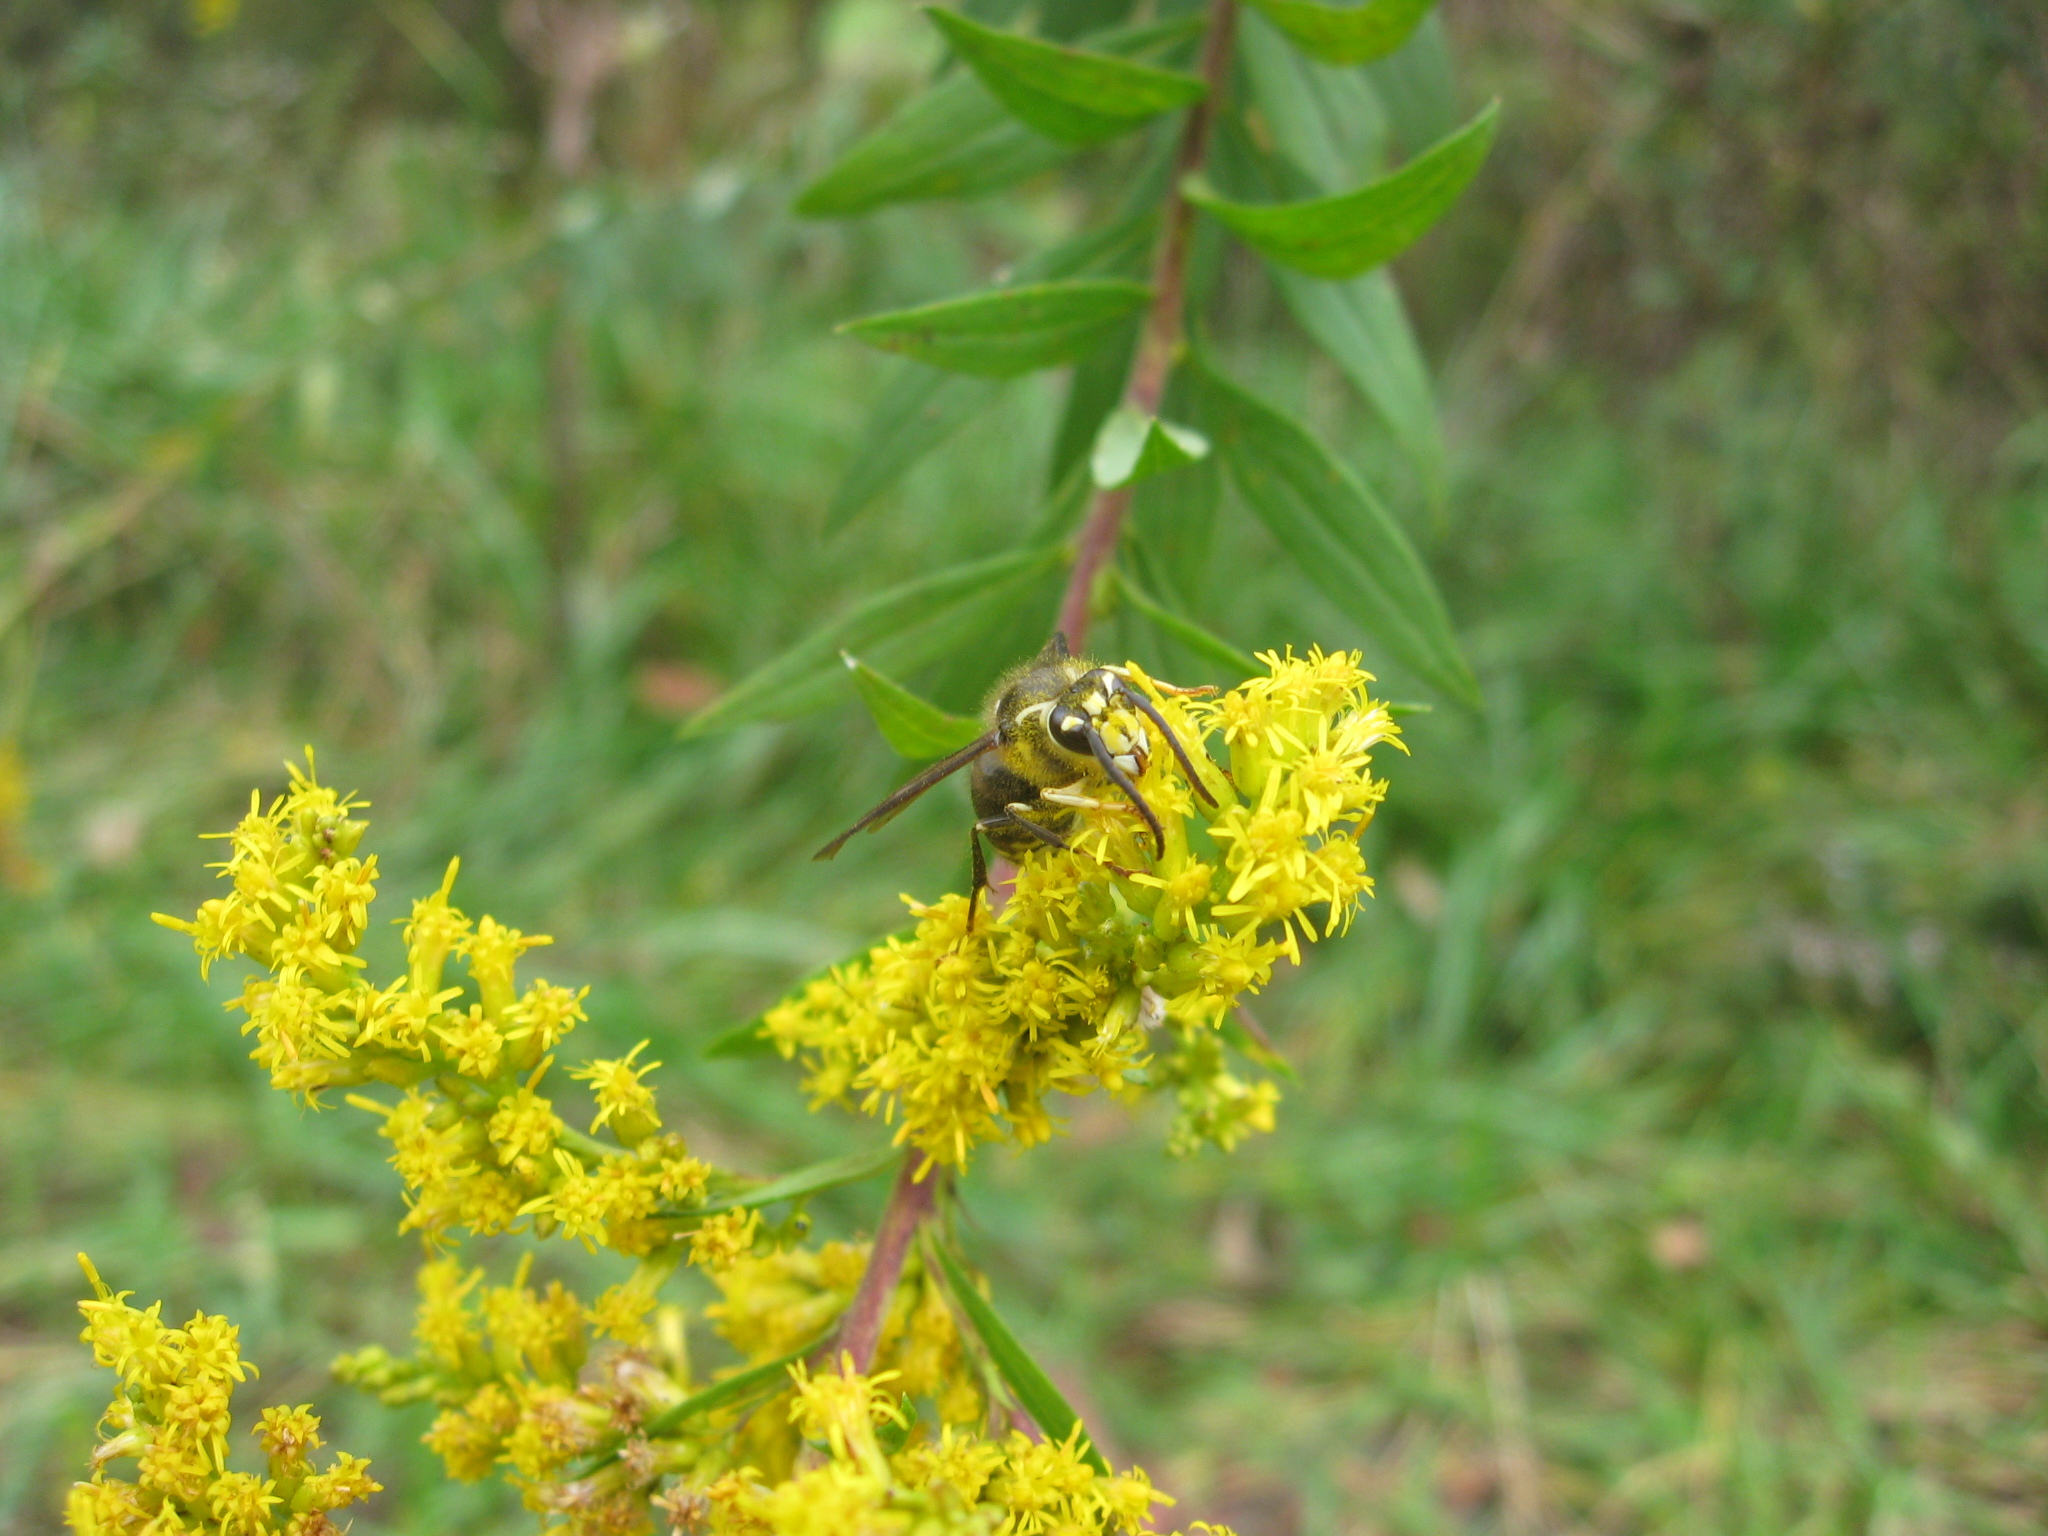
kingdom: Animalia
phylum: Arthropoda
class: Insecta
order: Hymenoptera
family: Vespidae
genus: Dolichovespula
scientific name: Dolichovespula maculata
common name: Bald-faced hornet
